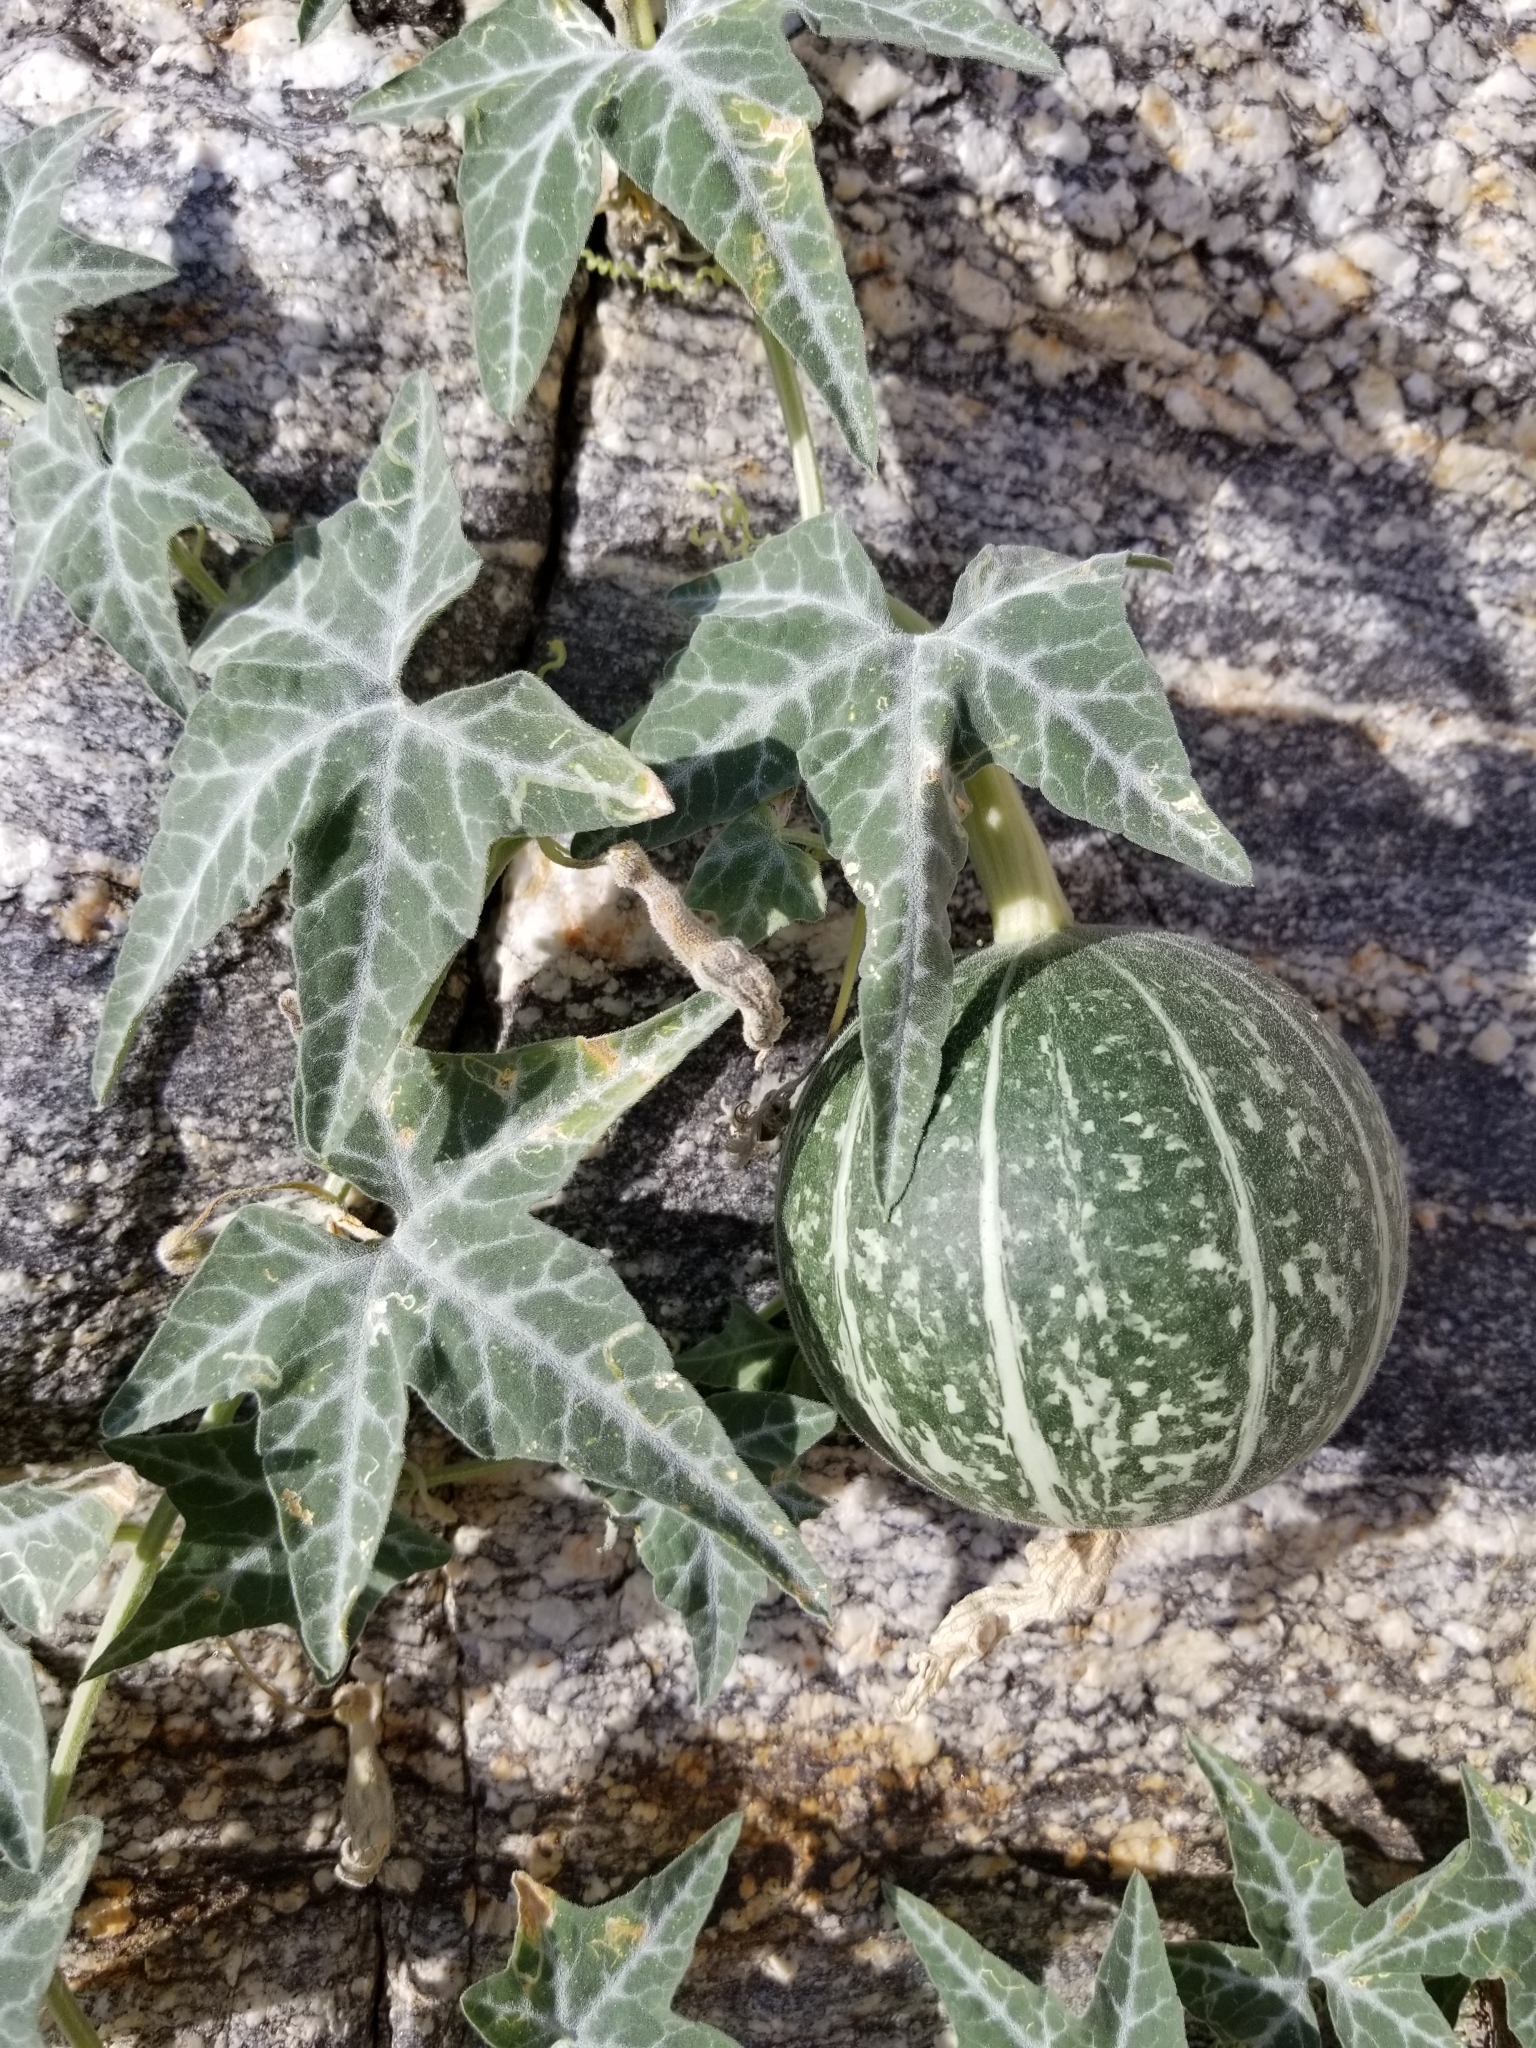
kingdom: Plantae
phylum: Tracheophyta
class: Magnoliopsida
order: Cucurbitales
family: Cucurbitaceae
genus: Cucurbita
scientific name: Cucurbita palmata
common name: Coyote-melon
